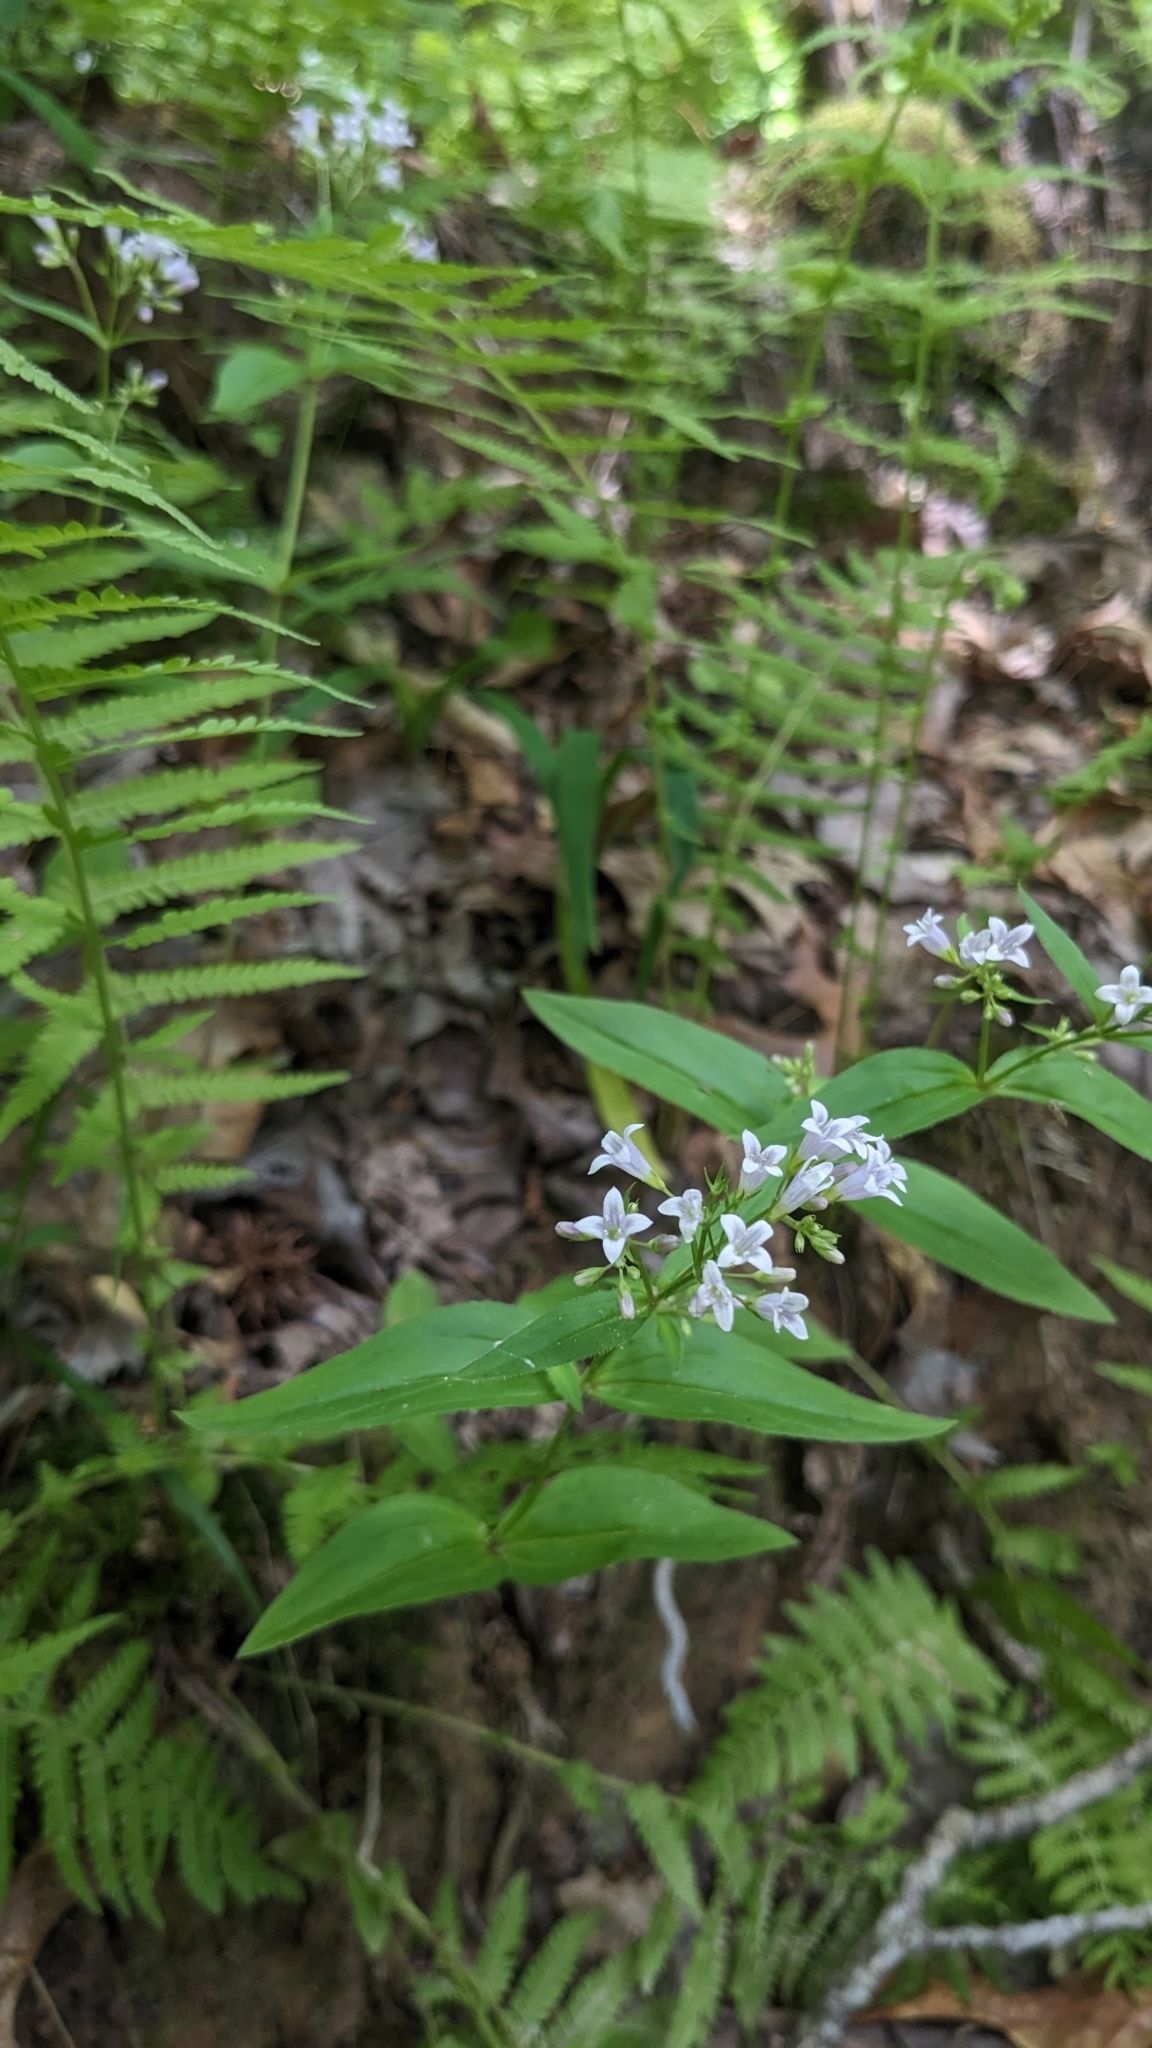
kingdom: Plantae
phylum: Tracheophyta
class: Magnoliopsida
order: Gentianales
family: Rubiaceae
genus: Houstonia
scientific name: Houstonia purpurea
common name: Summer bluet
